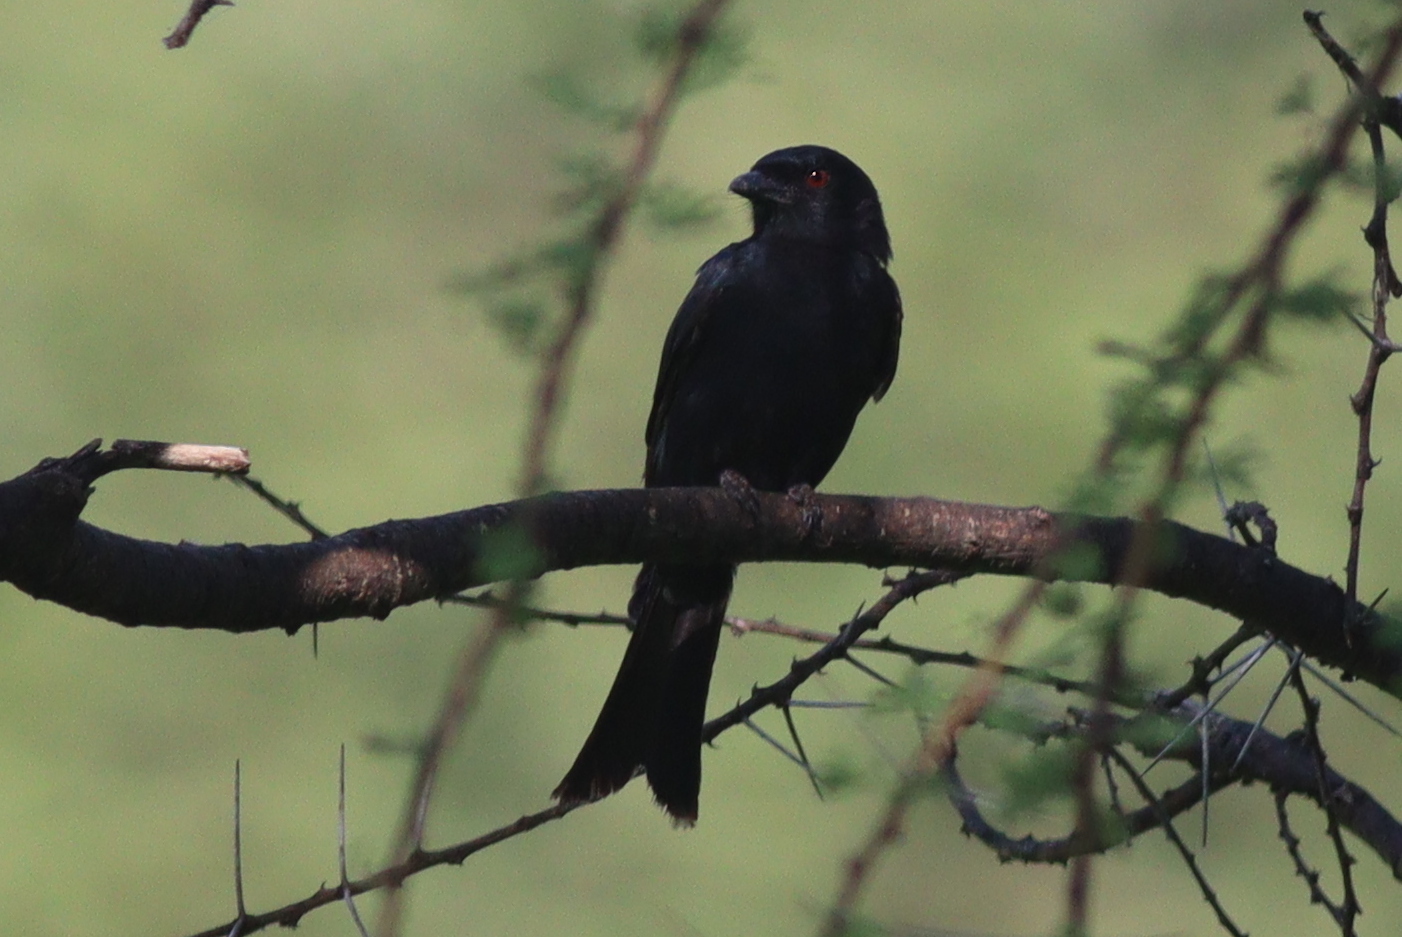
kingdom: Animalia
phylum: Chordata
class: Aves
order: Passeriformes
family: Dicruridae
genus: Dicrurus
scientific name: Dicrurus adsimilis
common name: Fork-tailed drongo
